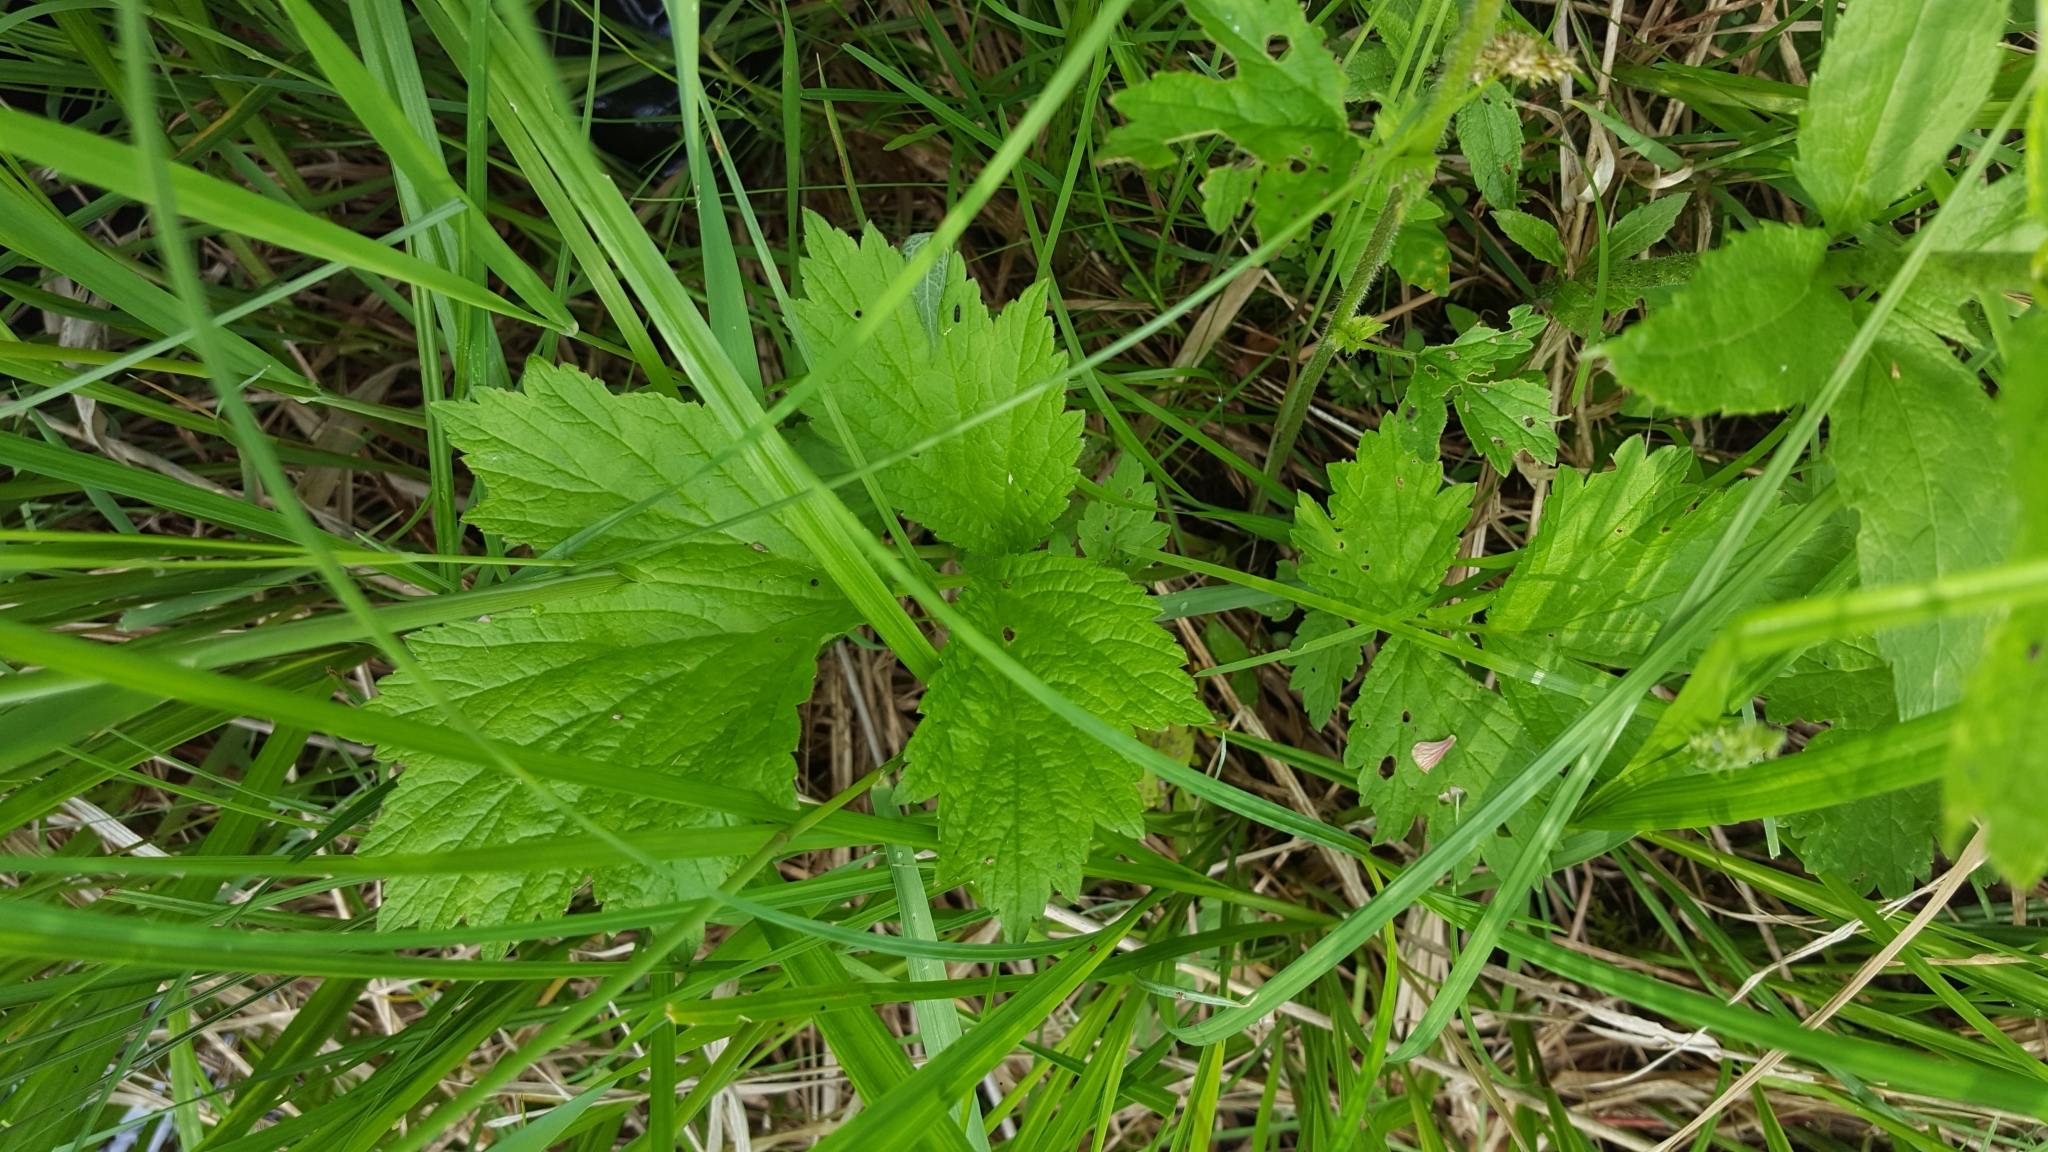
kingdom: Plantae
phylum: Tracheophyta
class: Magnoliopsida
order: Rosales
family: Rosaceae
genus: Geum
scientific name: Geum rivale
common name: Water avens
